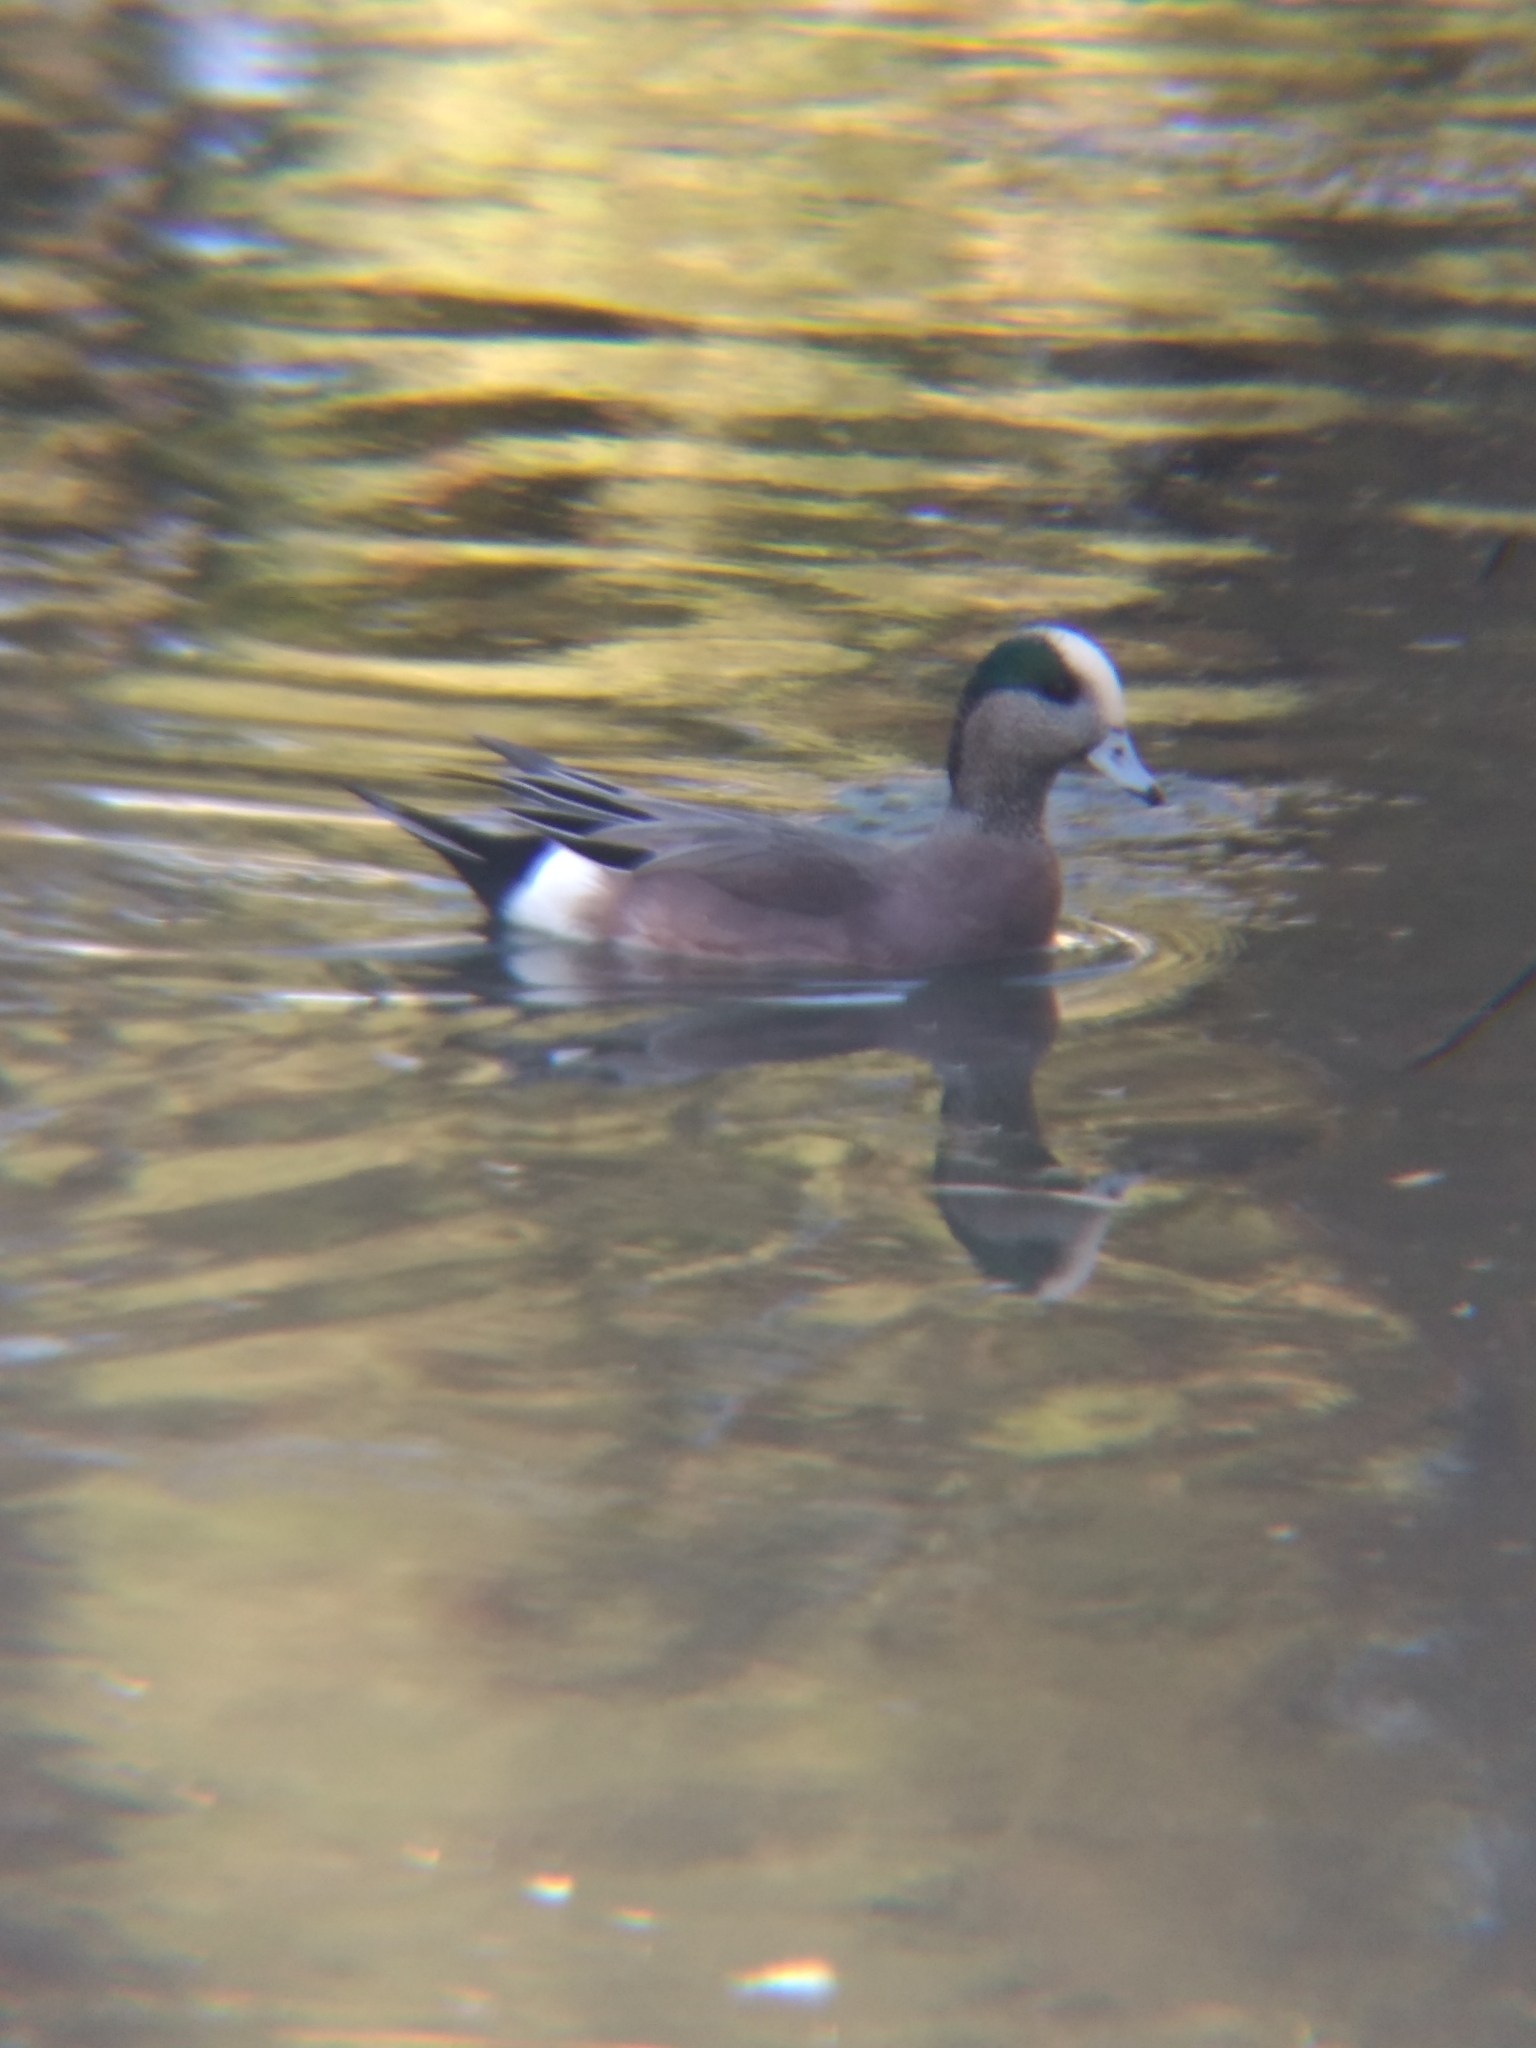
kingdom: Animalia
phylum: Chordata
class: Aves
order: Anseriformes
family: Anatidae
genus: Mareca
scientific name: Mareca americana
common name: American wigeon
